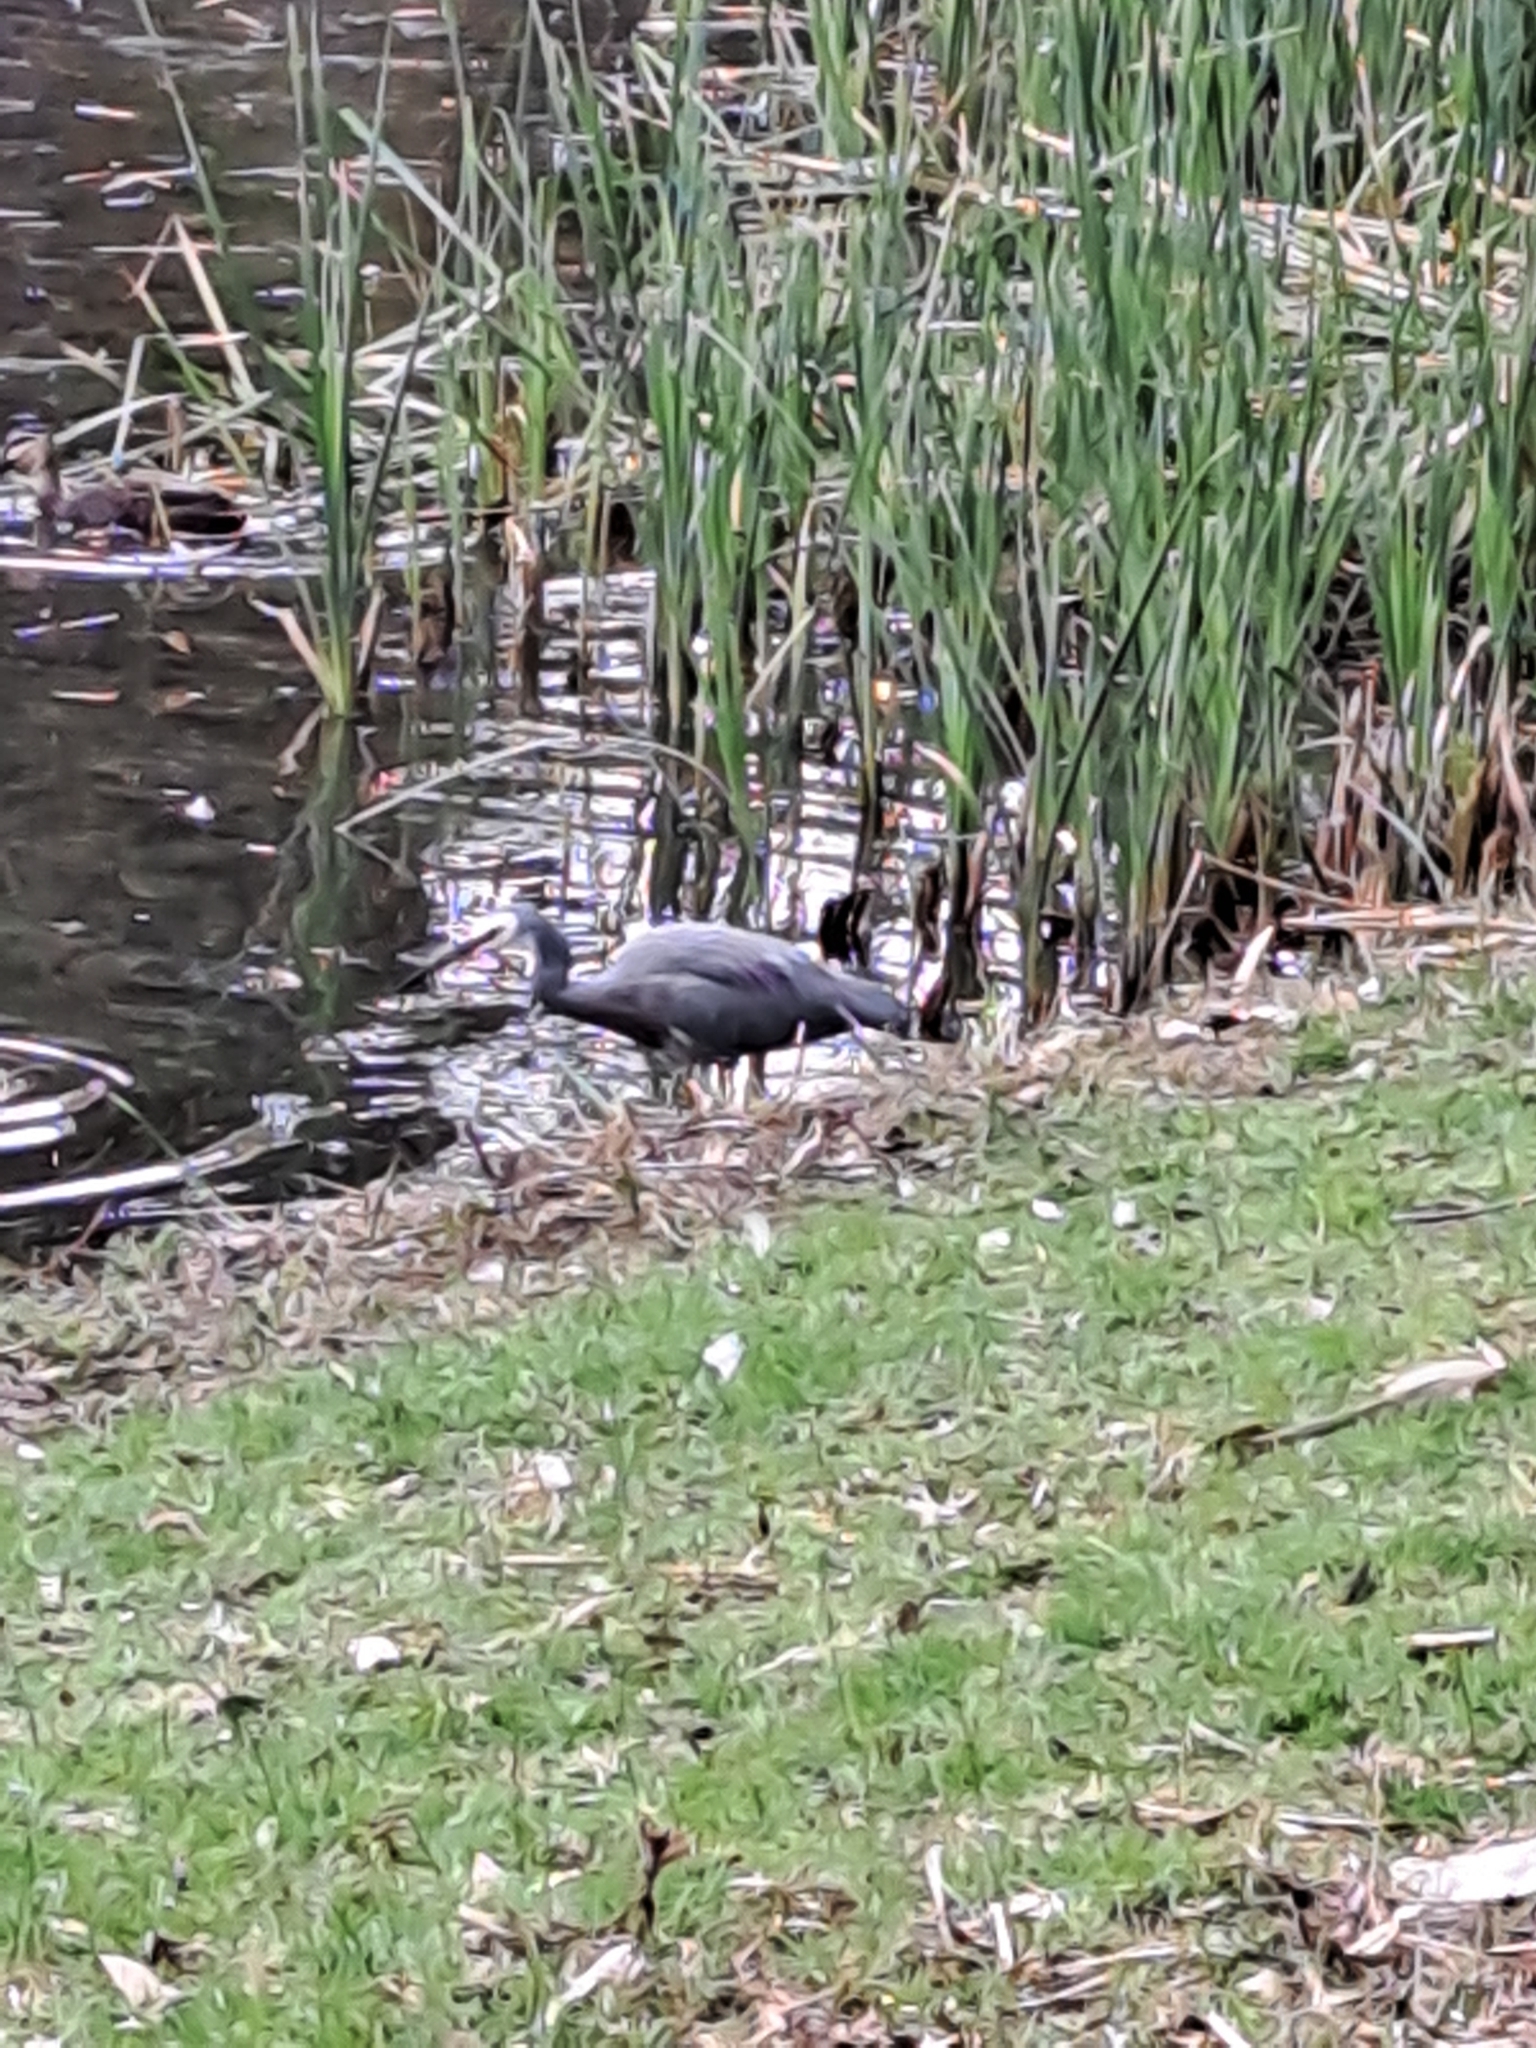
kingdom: Animalia
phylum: Chordata
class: Aves
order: Pelecaniformes
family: Ardeidae
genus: Egretta
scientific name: Egretta novaehollandiae
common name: White-faced heron
